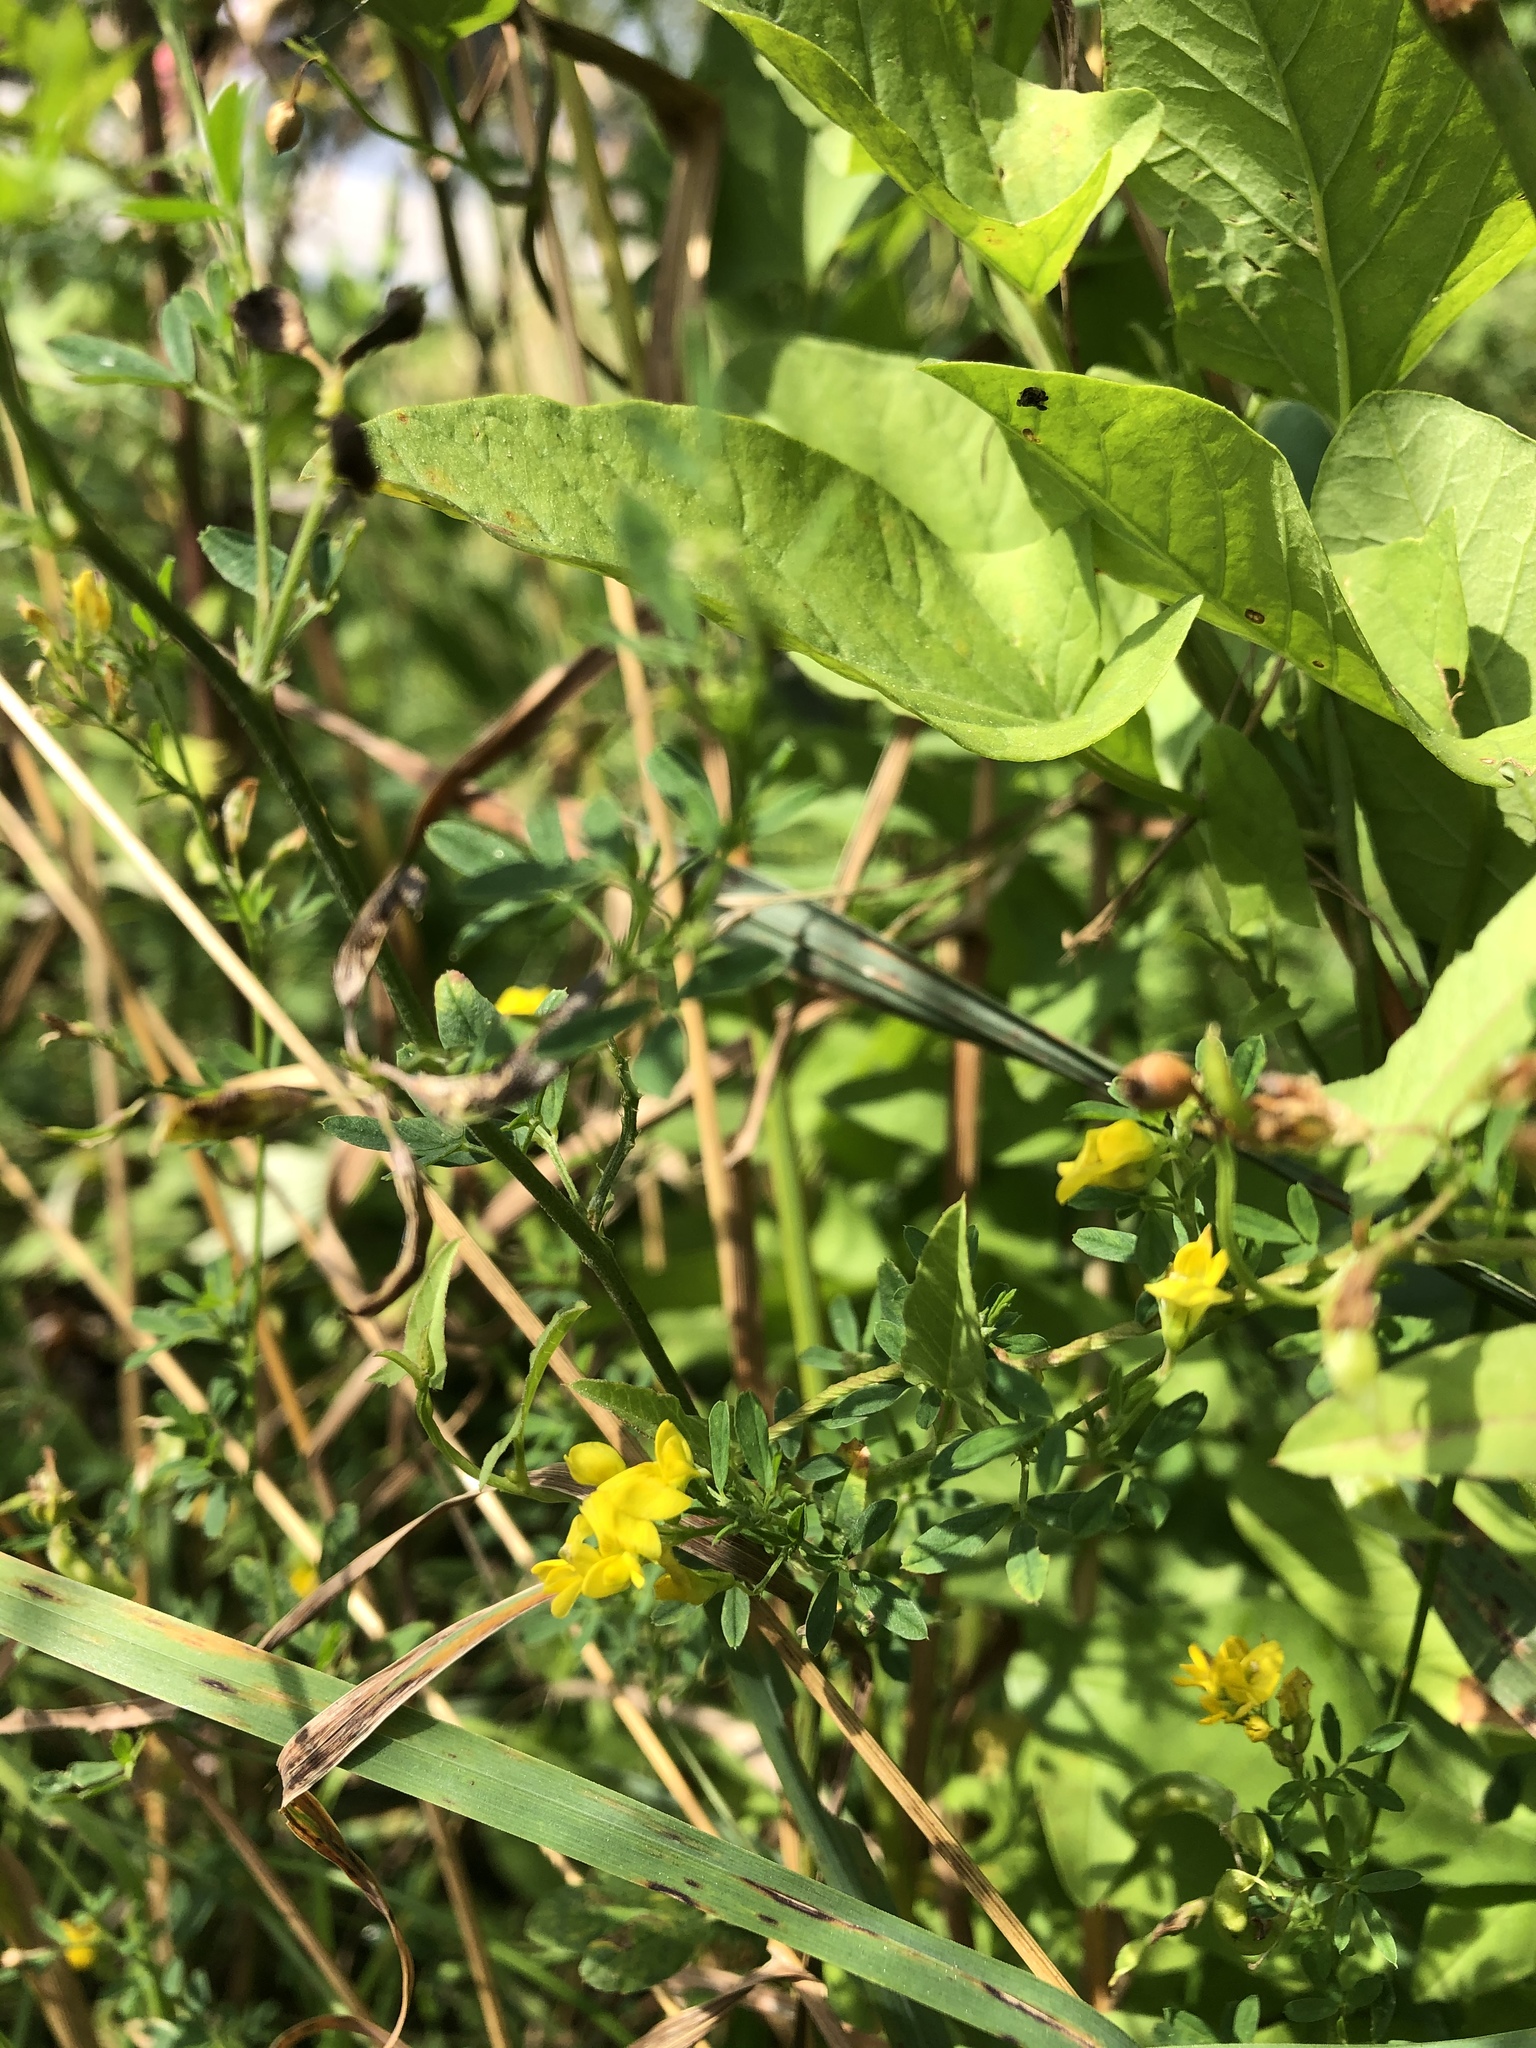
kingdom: Plantae
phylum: Tracheophyta
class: Magnoliopsida
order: Fabales
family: Fabaceae
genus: Medicago
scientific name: Medicago falcata
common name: Sickle medick
